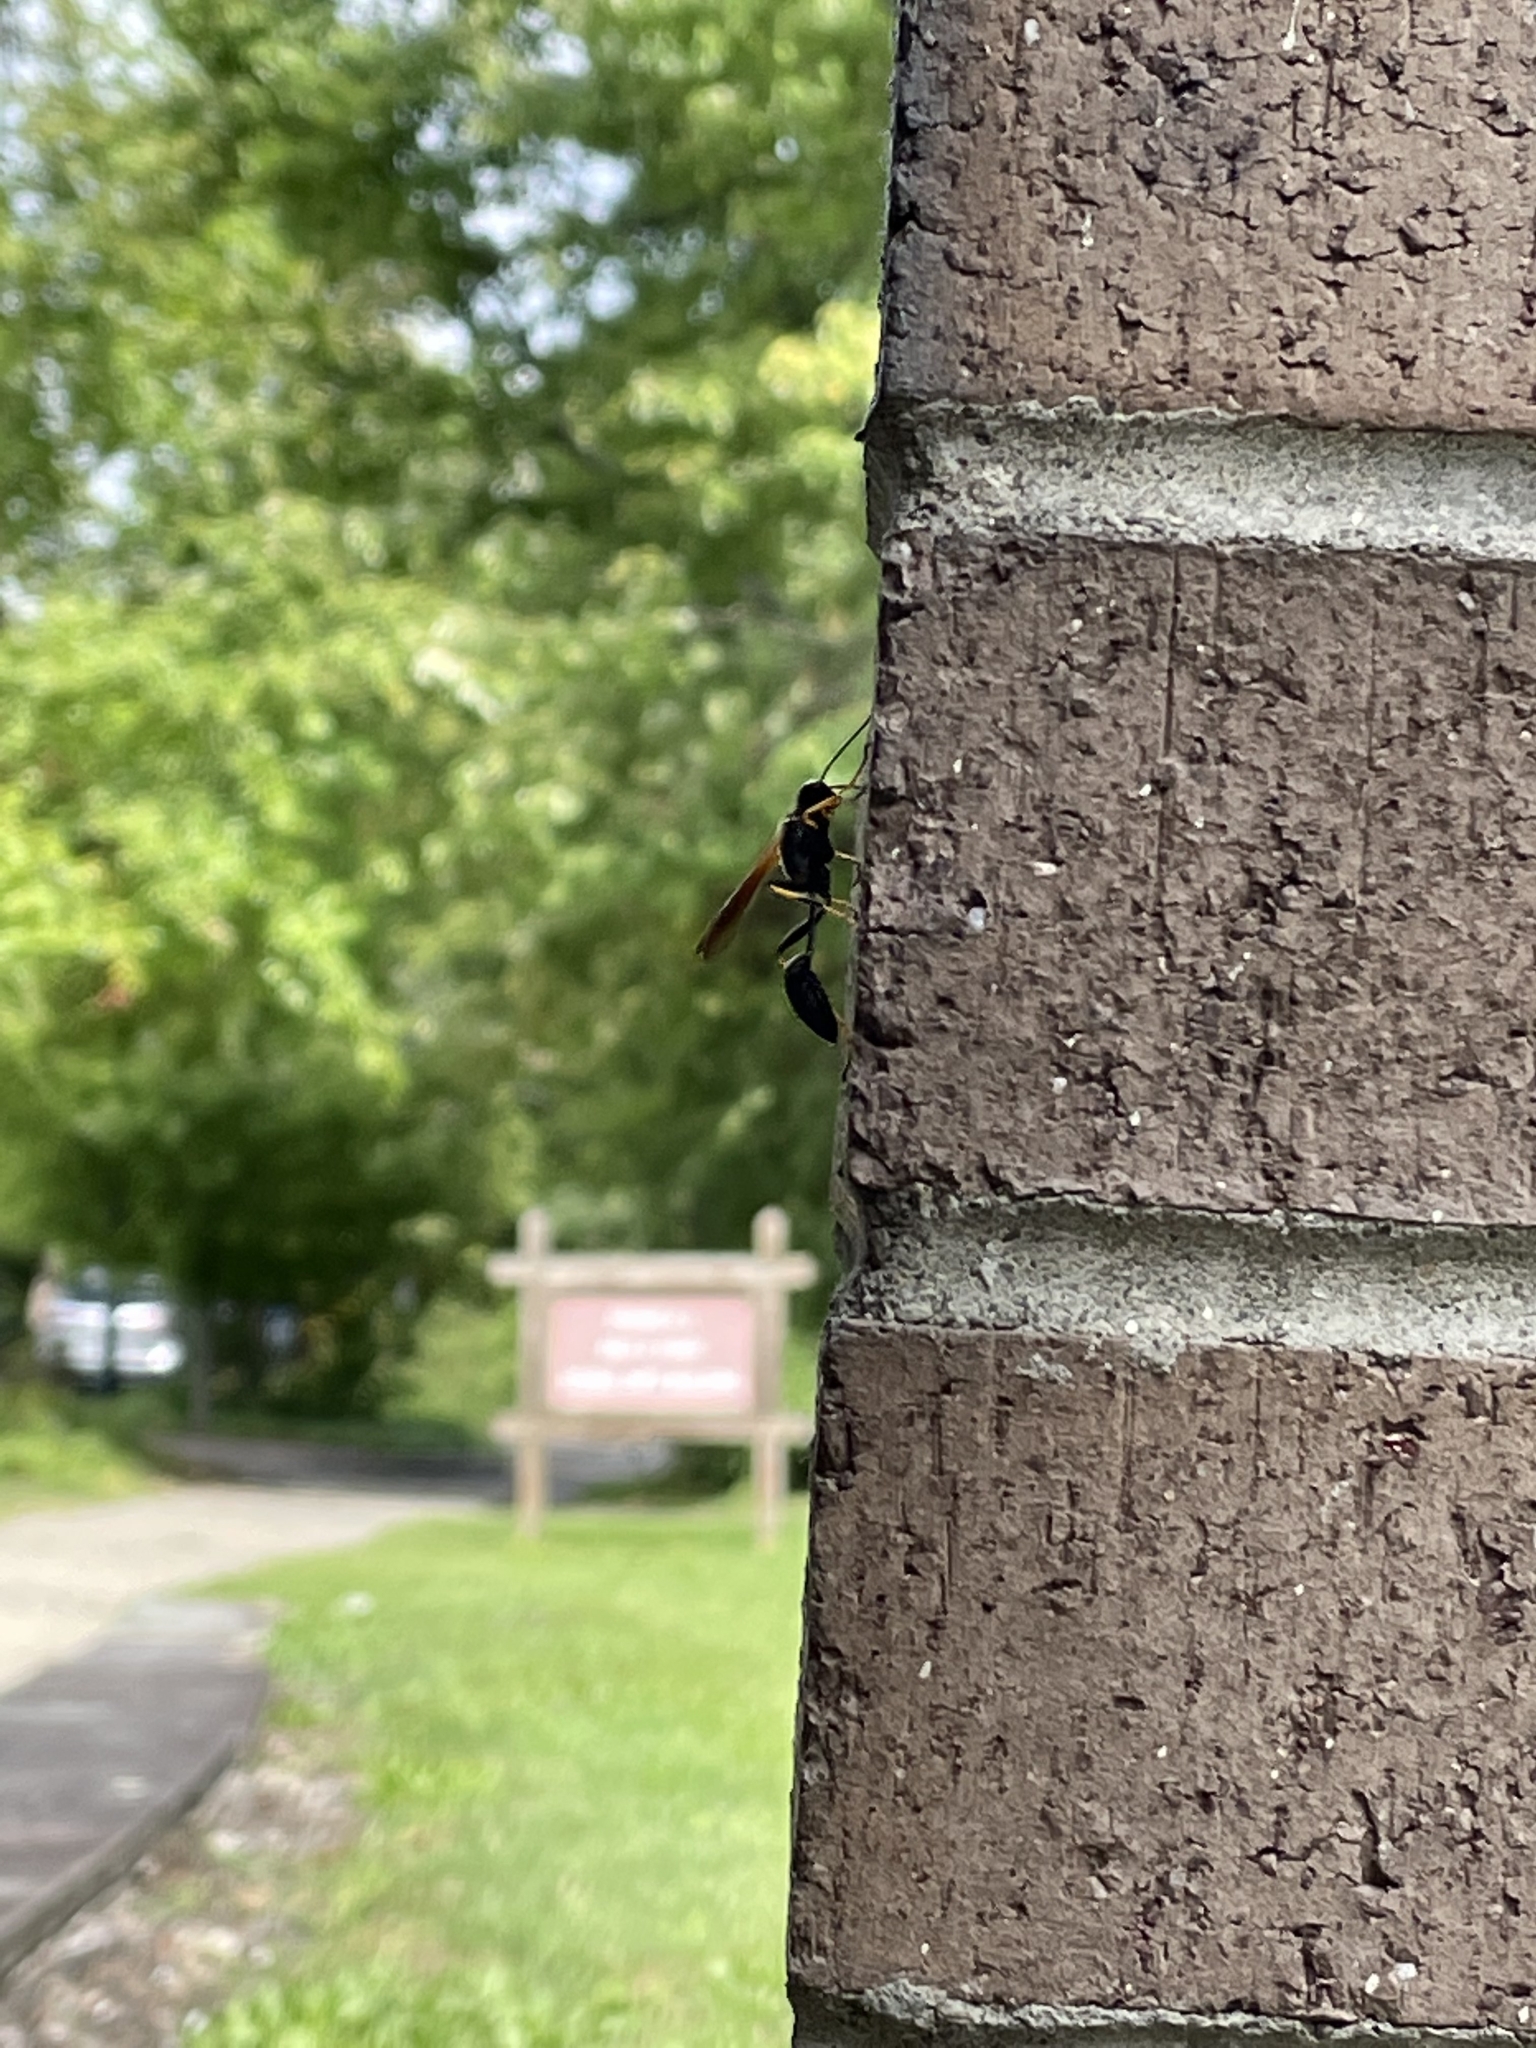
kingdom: Animalia
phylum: Arthropoda
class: Insecta
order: Hymenoptera
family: Sphecidae
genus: Sceliphron
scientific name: Sceliphron caementarium
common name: Mud dauber
